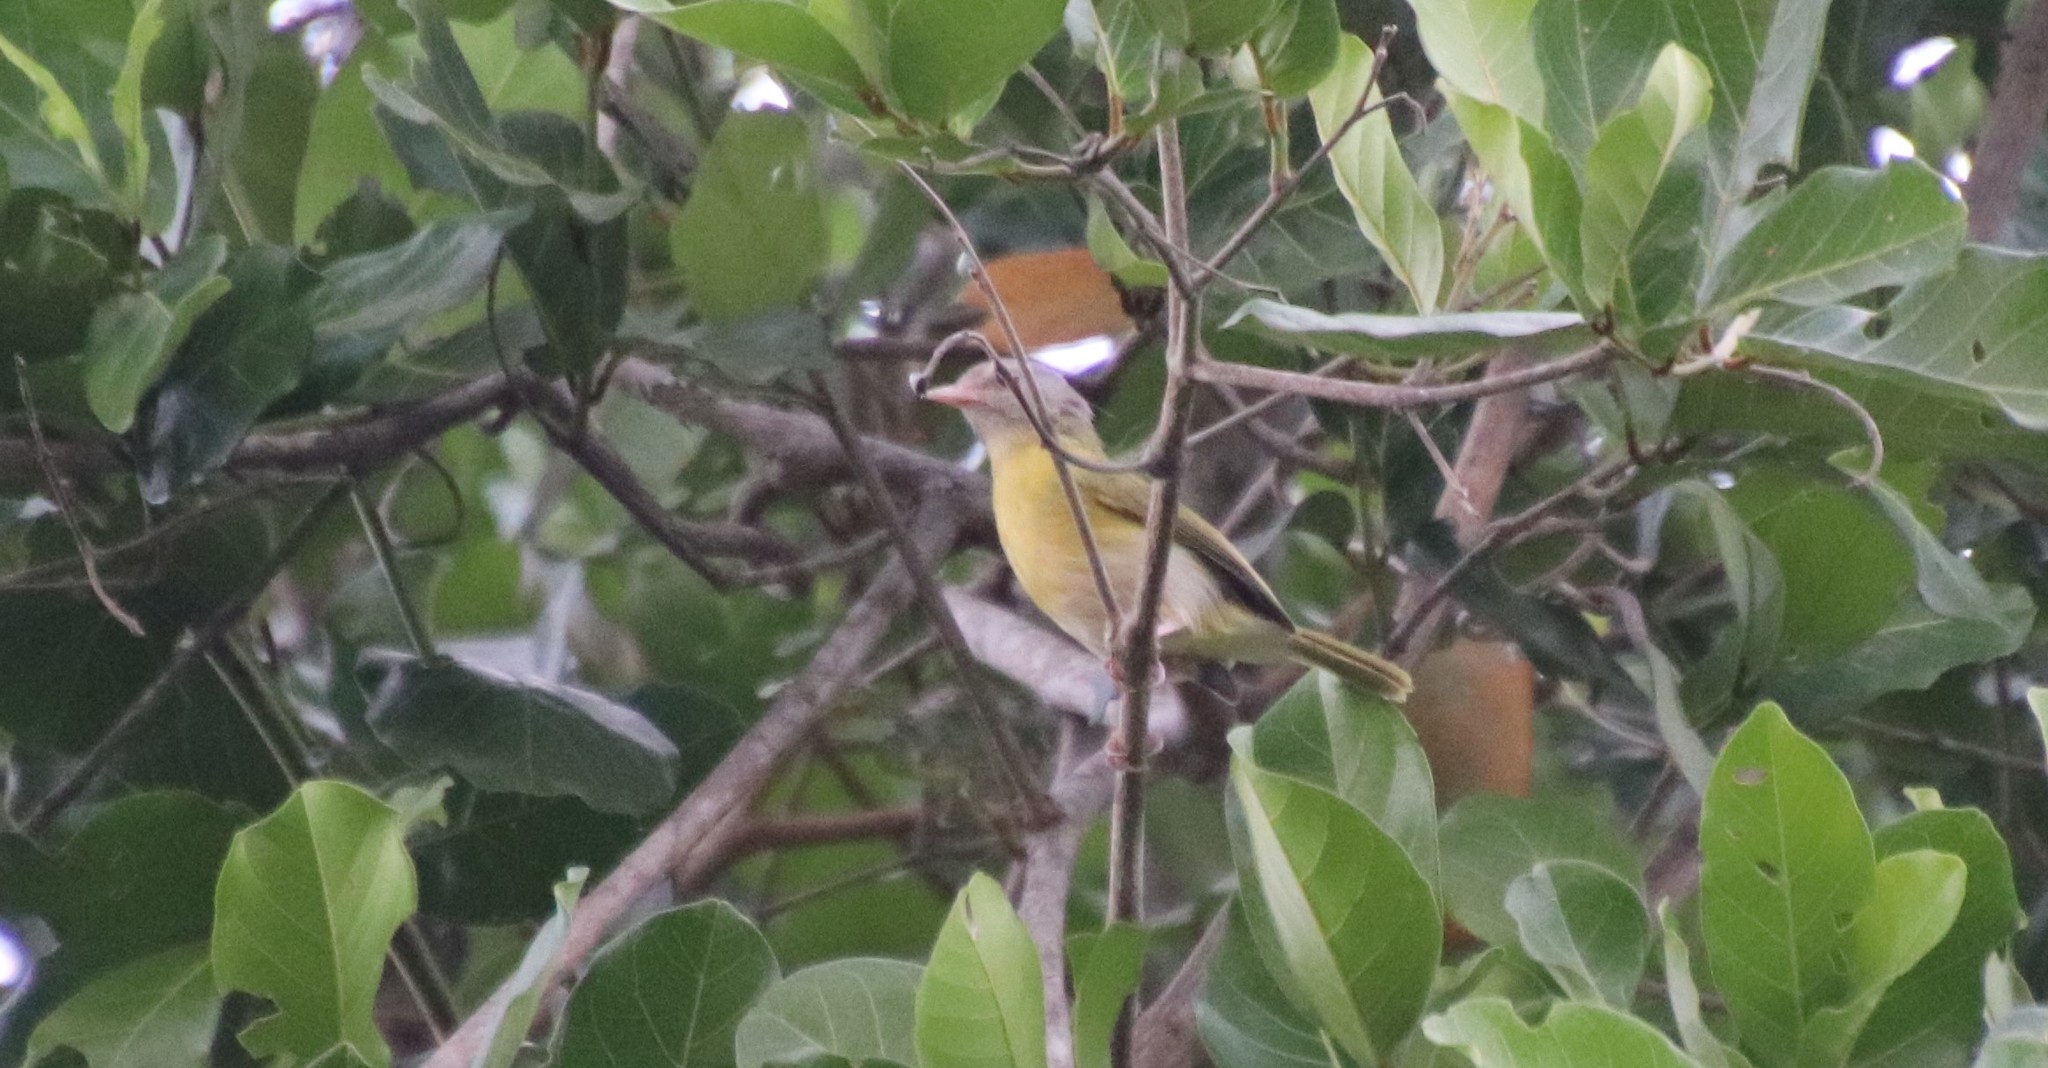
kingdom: Animalia
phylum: Chordata
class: Aves
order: Passeriformes
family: Vireonidae
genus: Hylophilus
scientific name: Hylophilus pectoralis
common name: Ashy-headed greenlet
